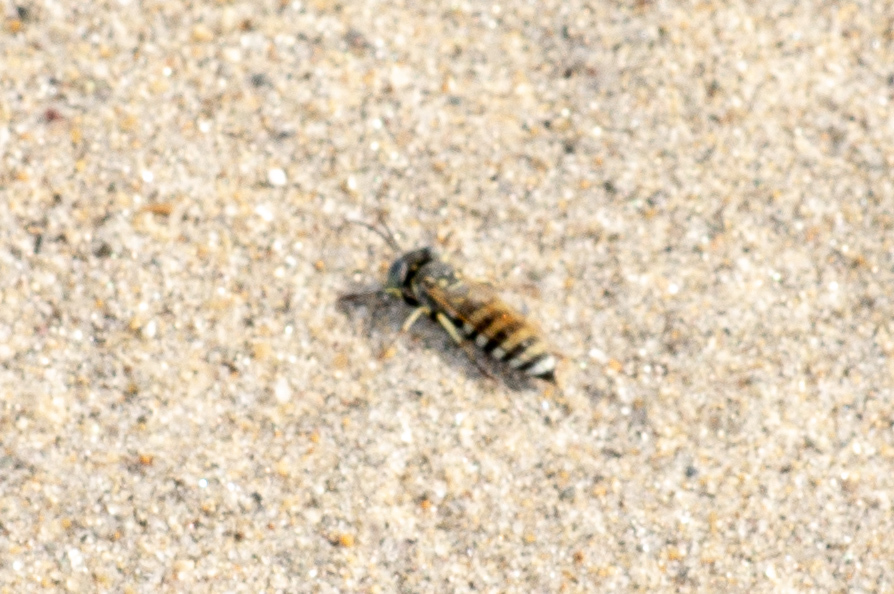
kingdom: Animalia
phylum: Arthropoda
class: Insecta
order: Hymenoptera
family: Crabronidae
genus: Microbembex
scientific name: Microbembex monodonta
